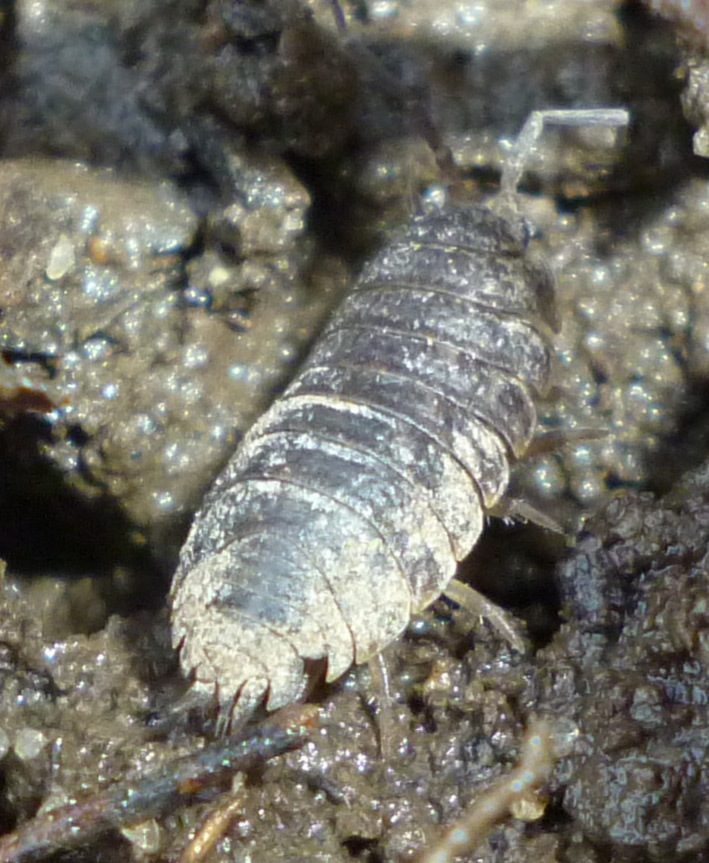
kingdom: Animalia
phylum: Arthropoda
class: Malacostraca
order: Isopoda
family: Trachelipodidae
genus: Trachelipus
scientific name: Trachelipus rathkii
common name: Isopod
